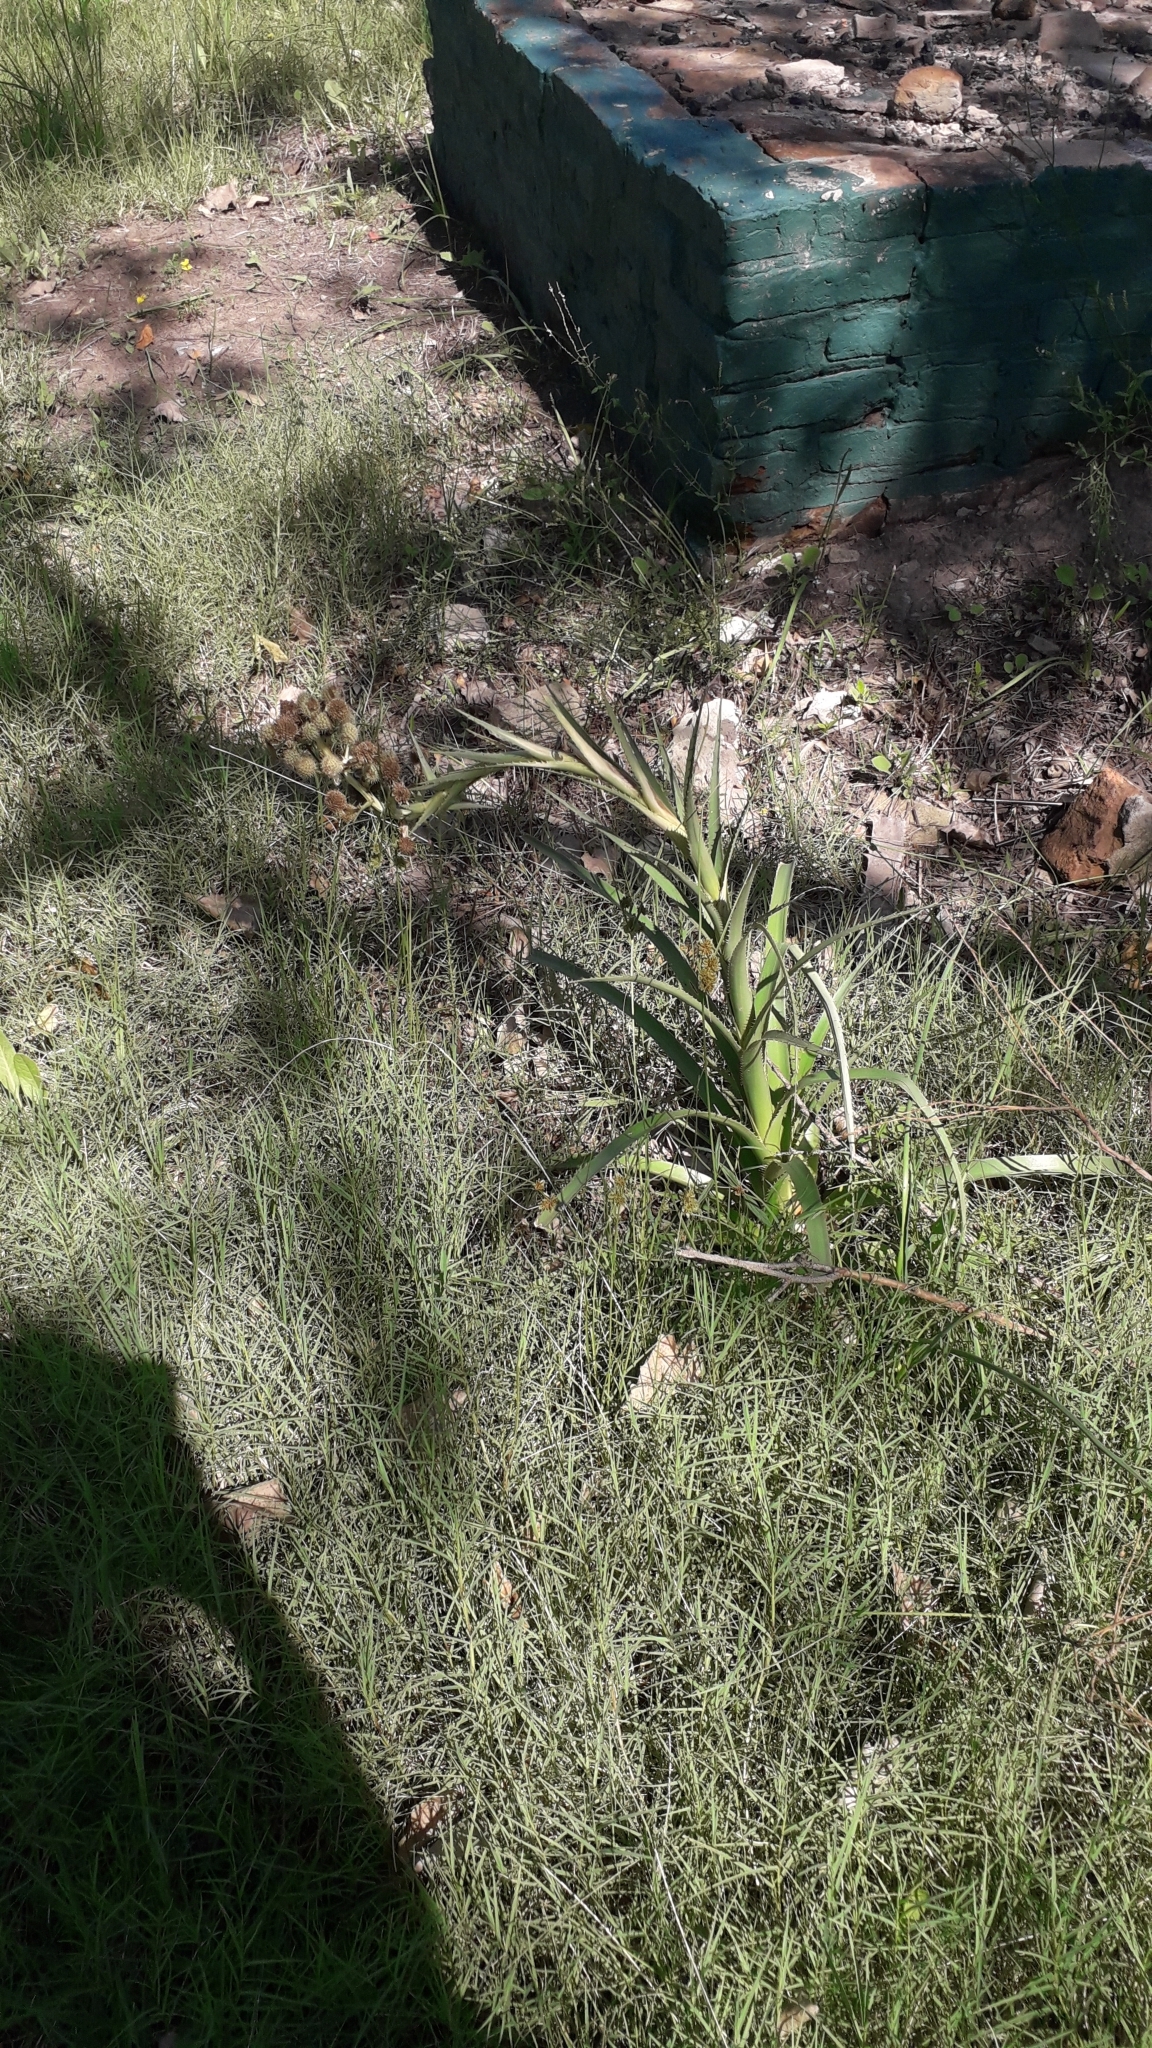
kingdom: Plantae
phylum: Tracheophyta
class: Magnoliopsida
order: Apiales
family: Apiaceae
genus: Eryngium
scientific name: Eryngium eburneum
